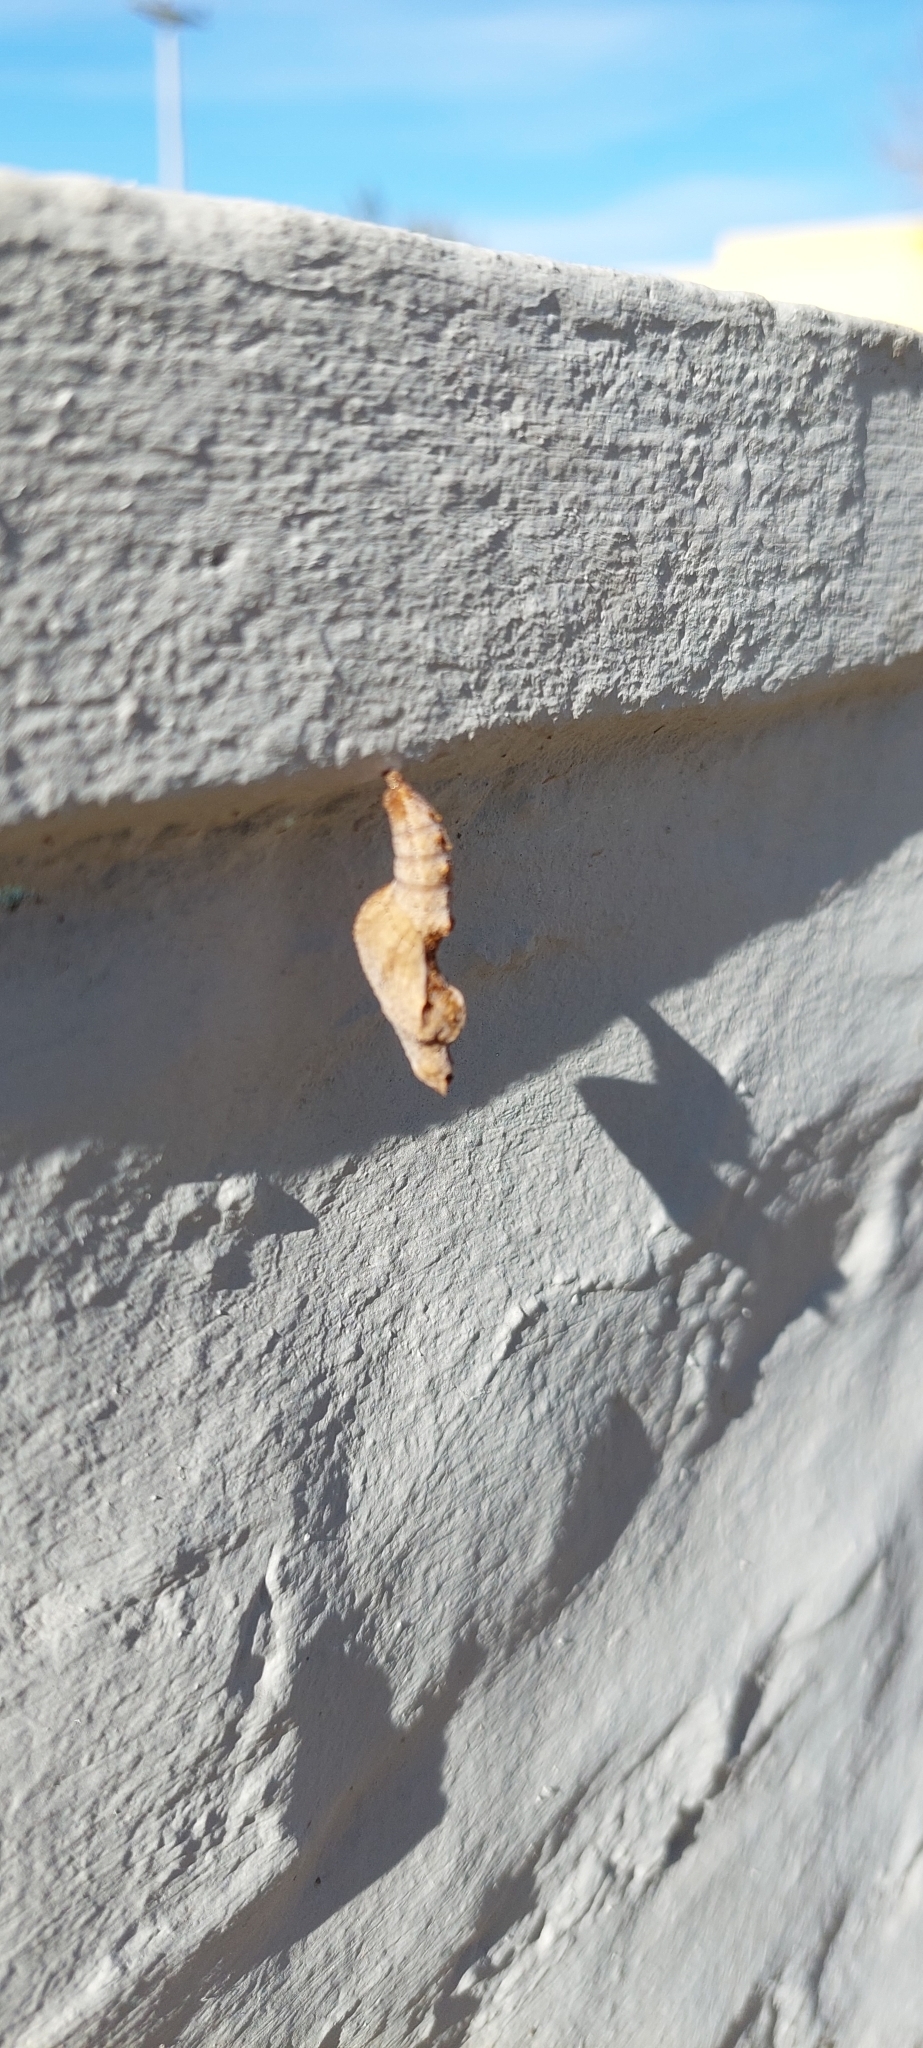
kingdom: Animalia
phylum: Arthropoda
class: Insecta
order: Lepidoptera
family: Nymphalidae
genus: Dione
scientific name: Dione vanillae
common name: Gulf fritillary
